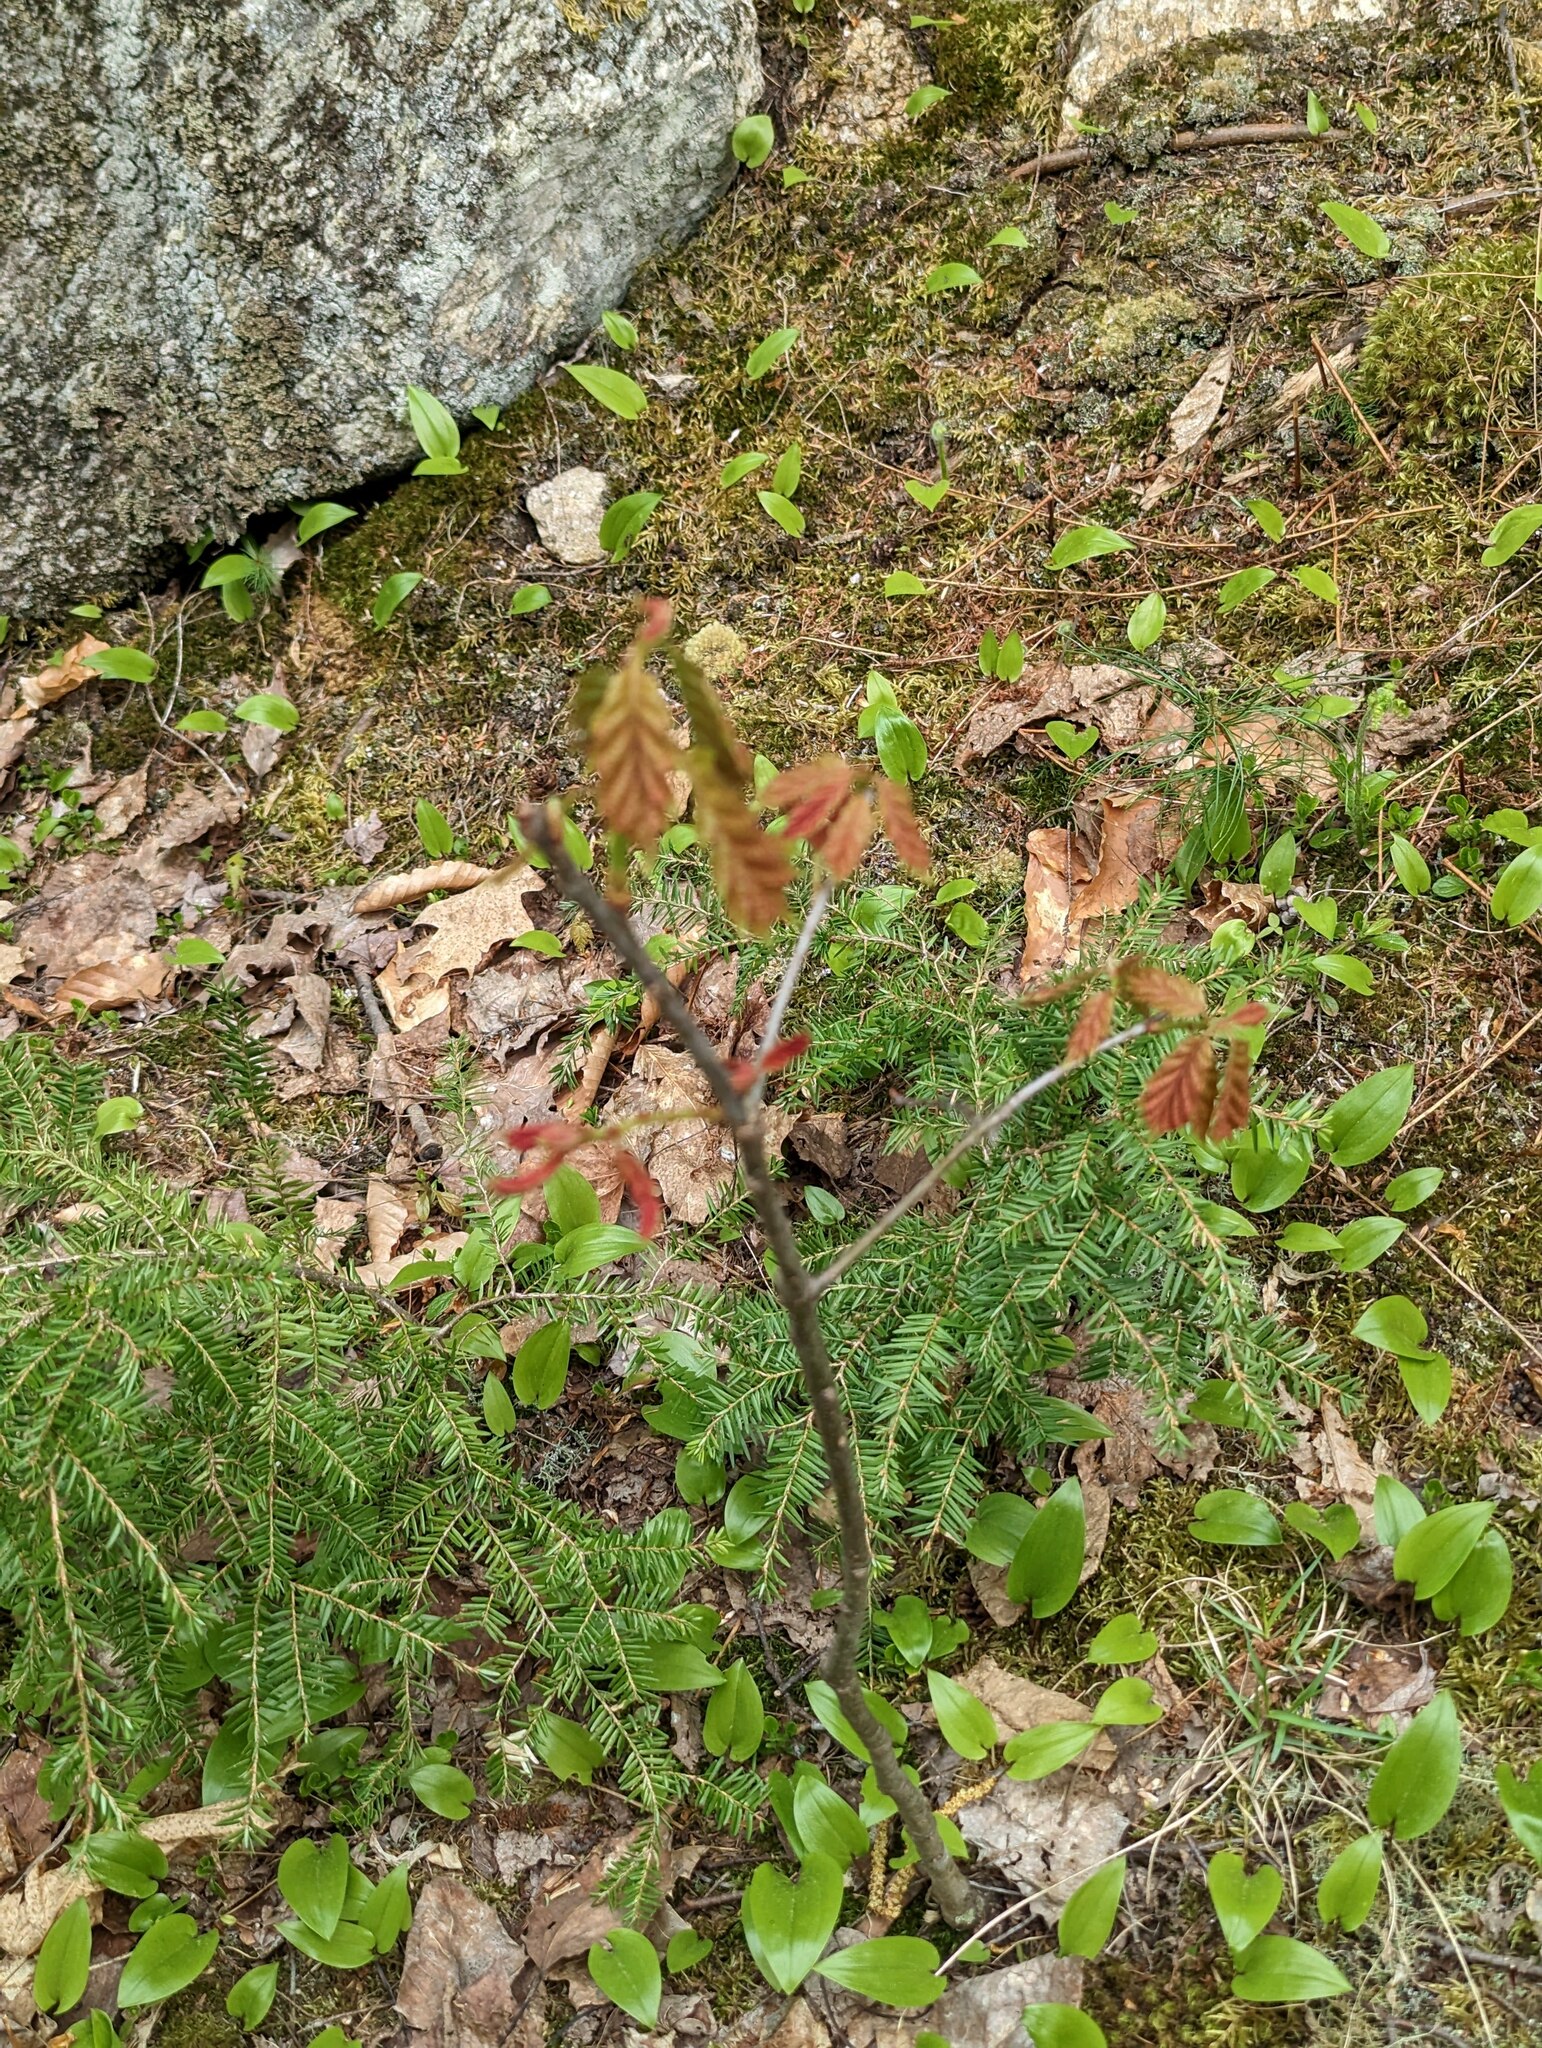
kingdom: Plantae
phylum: Tracheophyta
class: Magnoliopsida
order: Fagales
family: Fagaceae
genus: Quercus
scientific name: Quercus rubra
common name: Red oak
